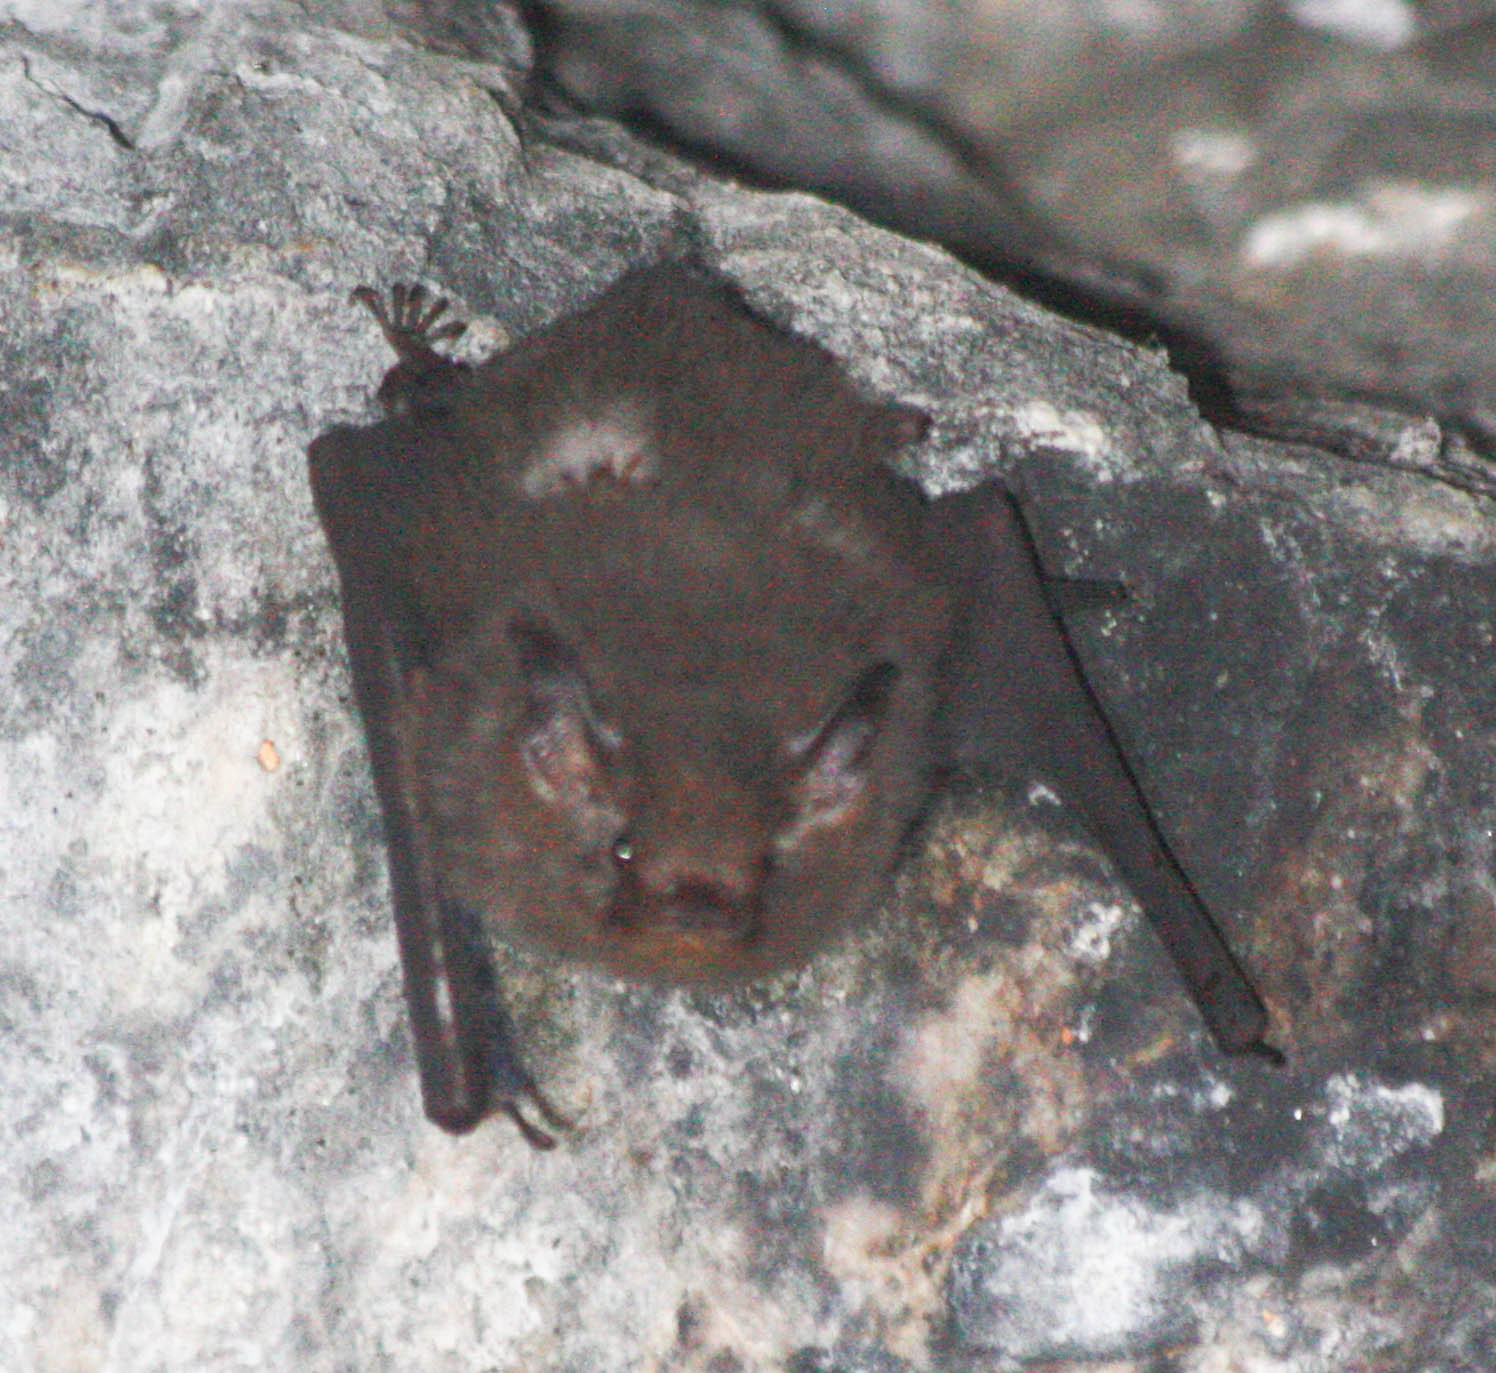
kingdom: Animalia
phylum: Chordata
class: Mammalia
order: Chiroptera
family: Emballonuridae
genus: Paremballonura
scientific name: Paremballonura atrata
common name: Peters's sheath-tailed bat
